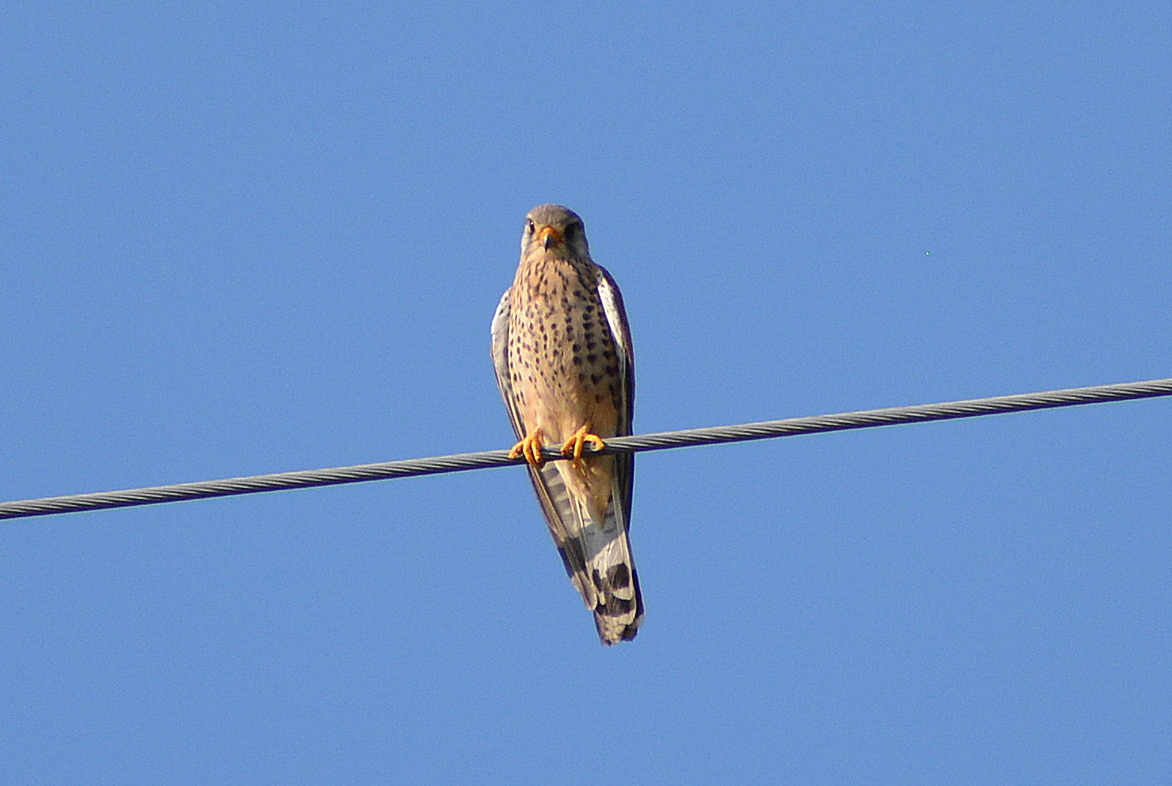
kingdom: Animalia
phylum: Chordata
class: Aves
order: Falconiformes
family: Falconidae
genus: Falco
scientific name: Falco tinnunculus
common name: Common kestrel
